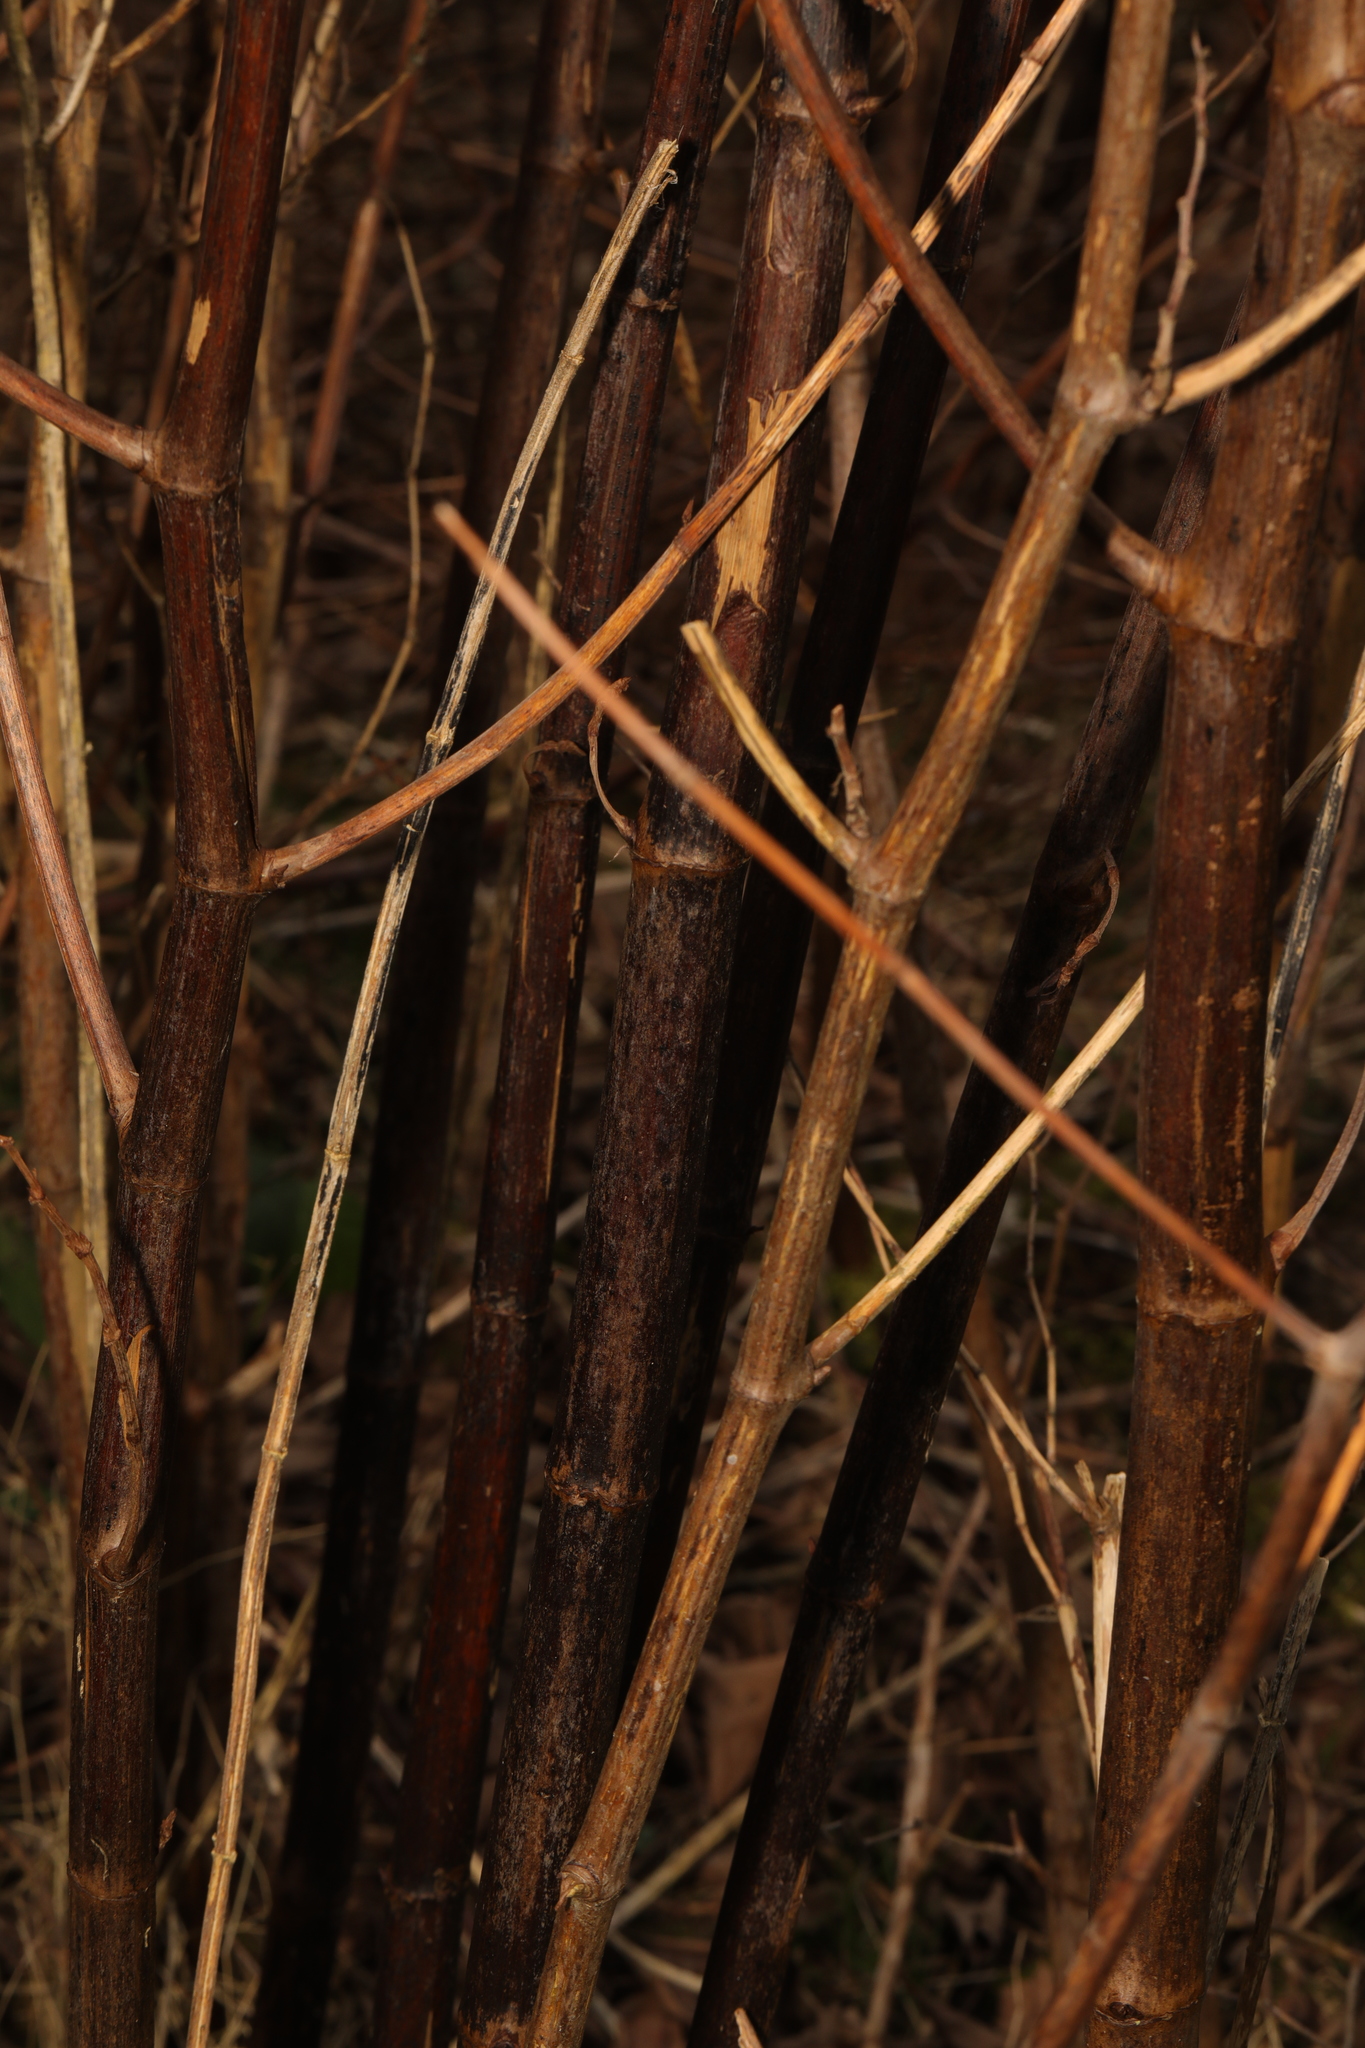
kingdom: Plantae
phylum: Tracheophyta
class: Magnoliopsida
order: Caryophyllales
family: Polygonaceae
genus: Reynoutria
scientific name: Reynoutria japonica
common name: Japanese knotweed
